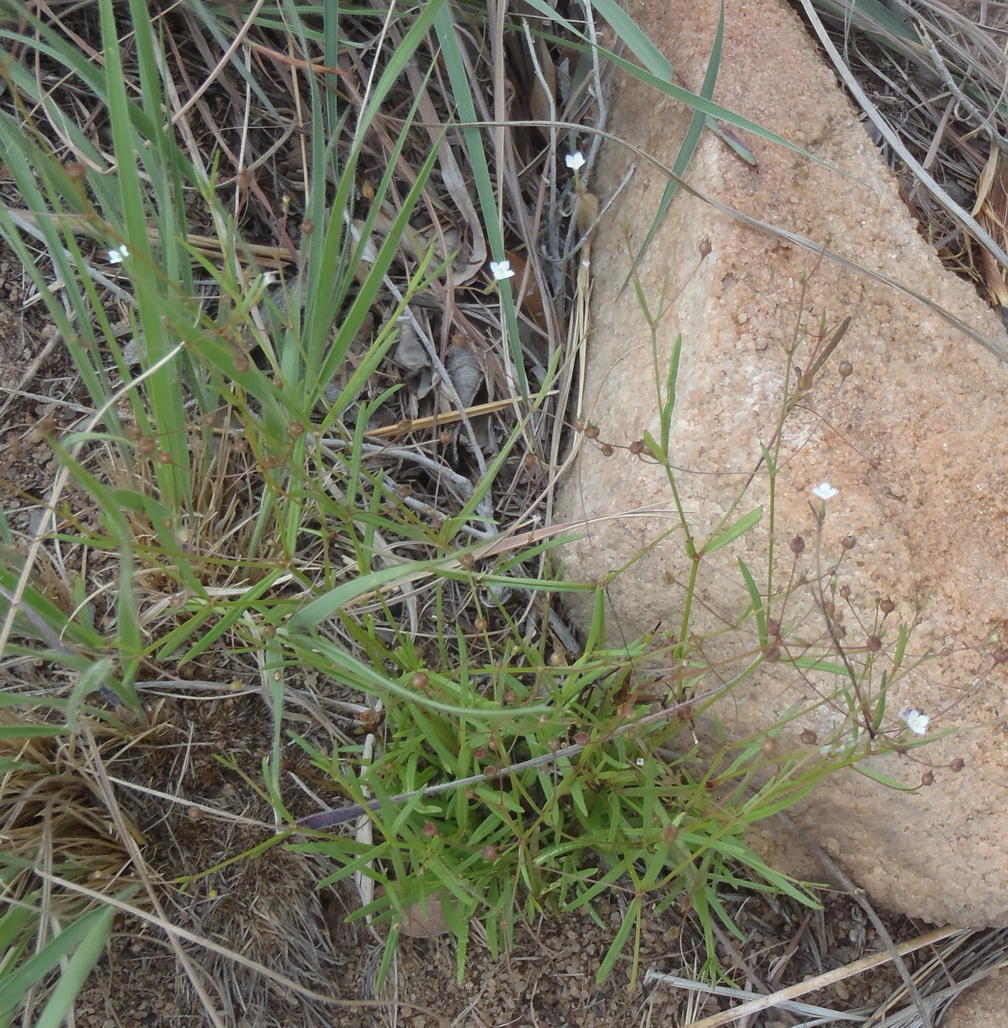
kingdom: Plantae
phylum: Tracheophyta
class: Magnoliopsida
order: Gentianales
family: Rubiaceae
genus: Oldenlandia
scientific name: Oldenlandia herbacea
